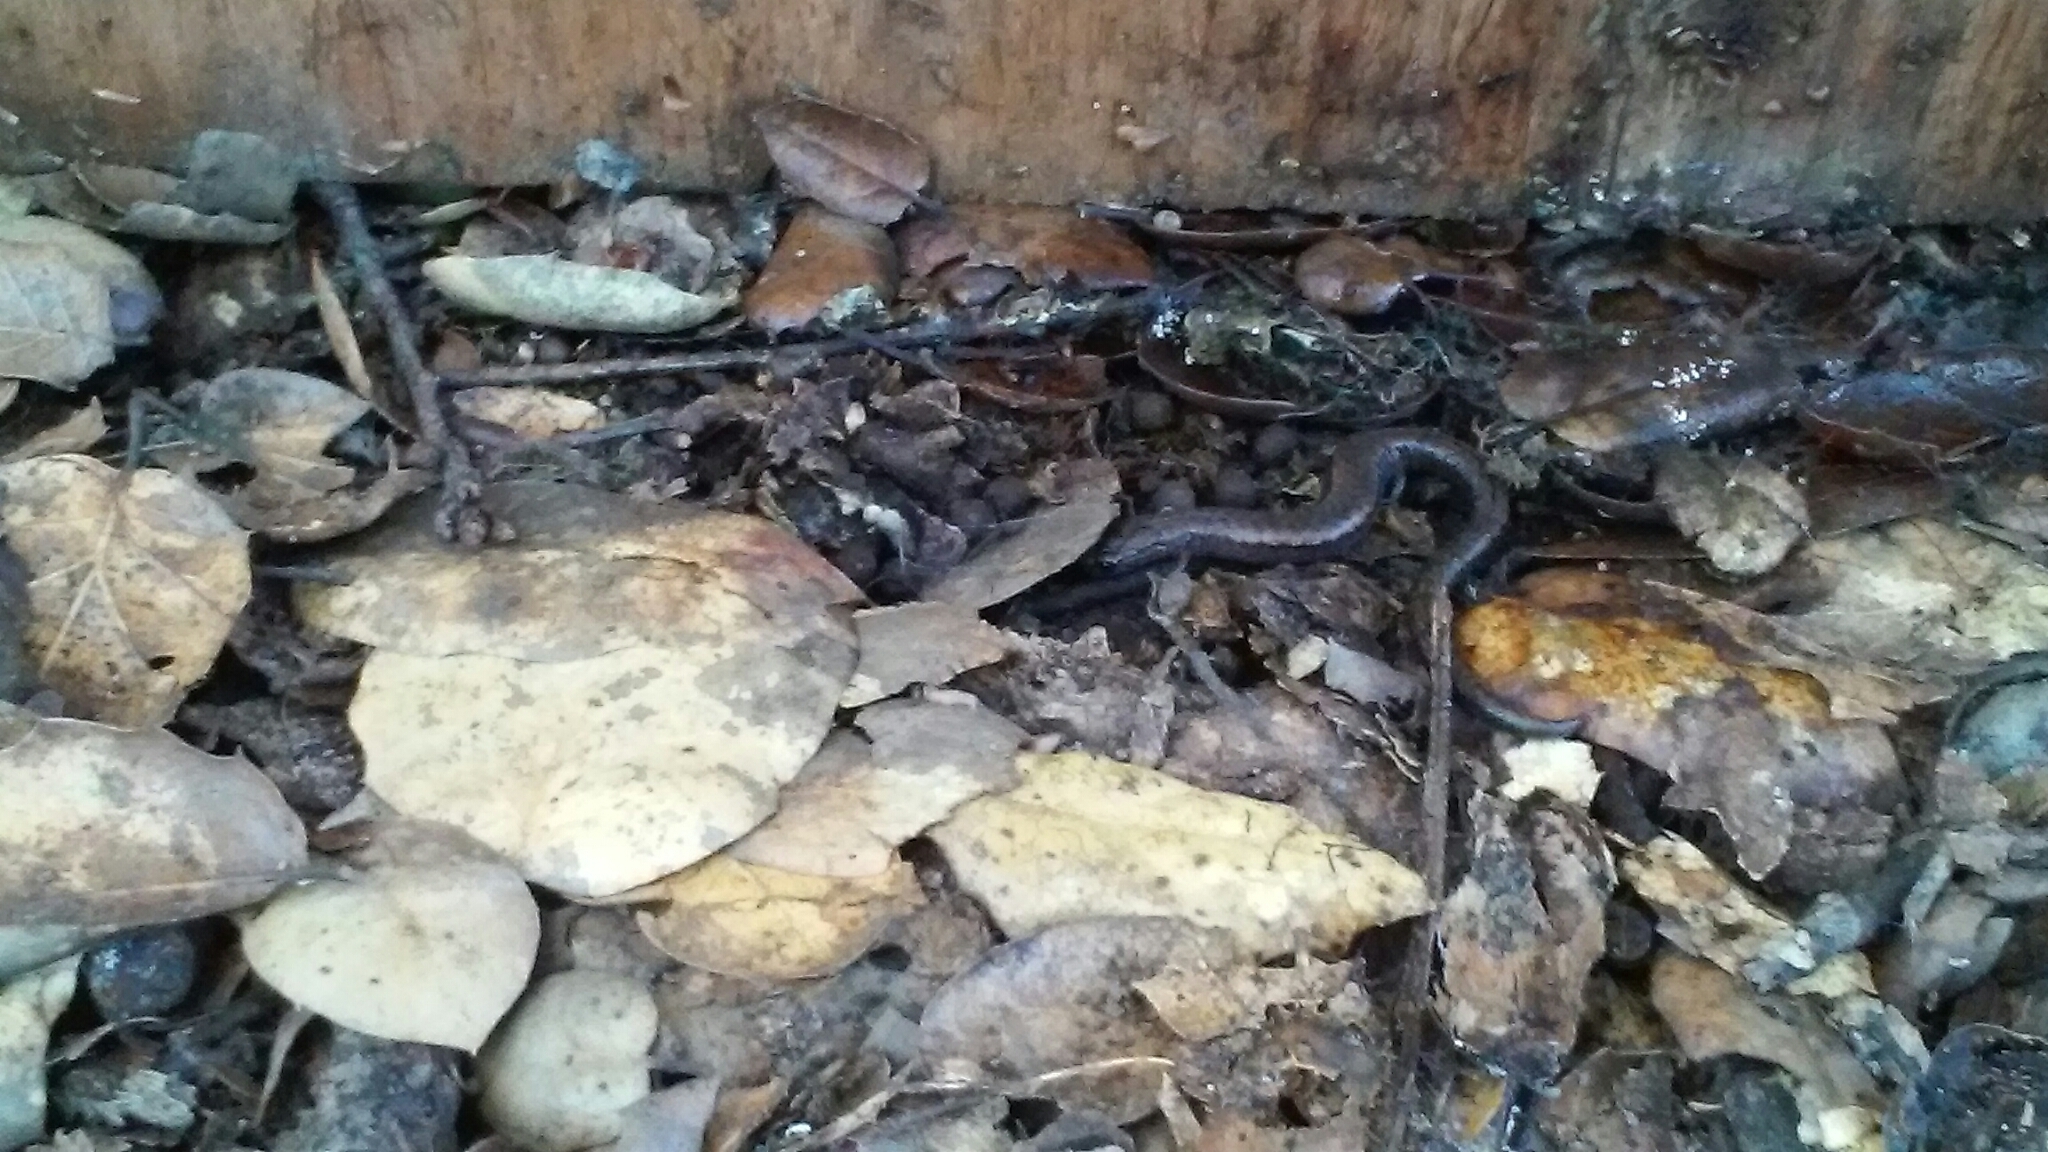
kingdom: Animalia
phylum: Chordata
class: Amphibia
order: Caudata
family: Plethodontidae
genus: Batrachoseps
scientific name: Batrachoseps attenuatus
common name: California slender salamander
